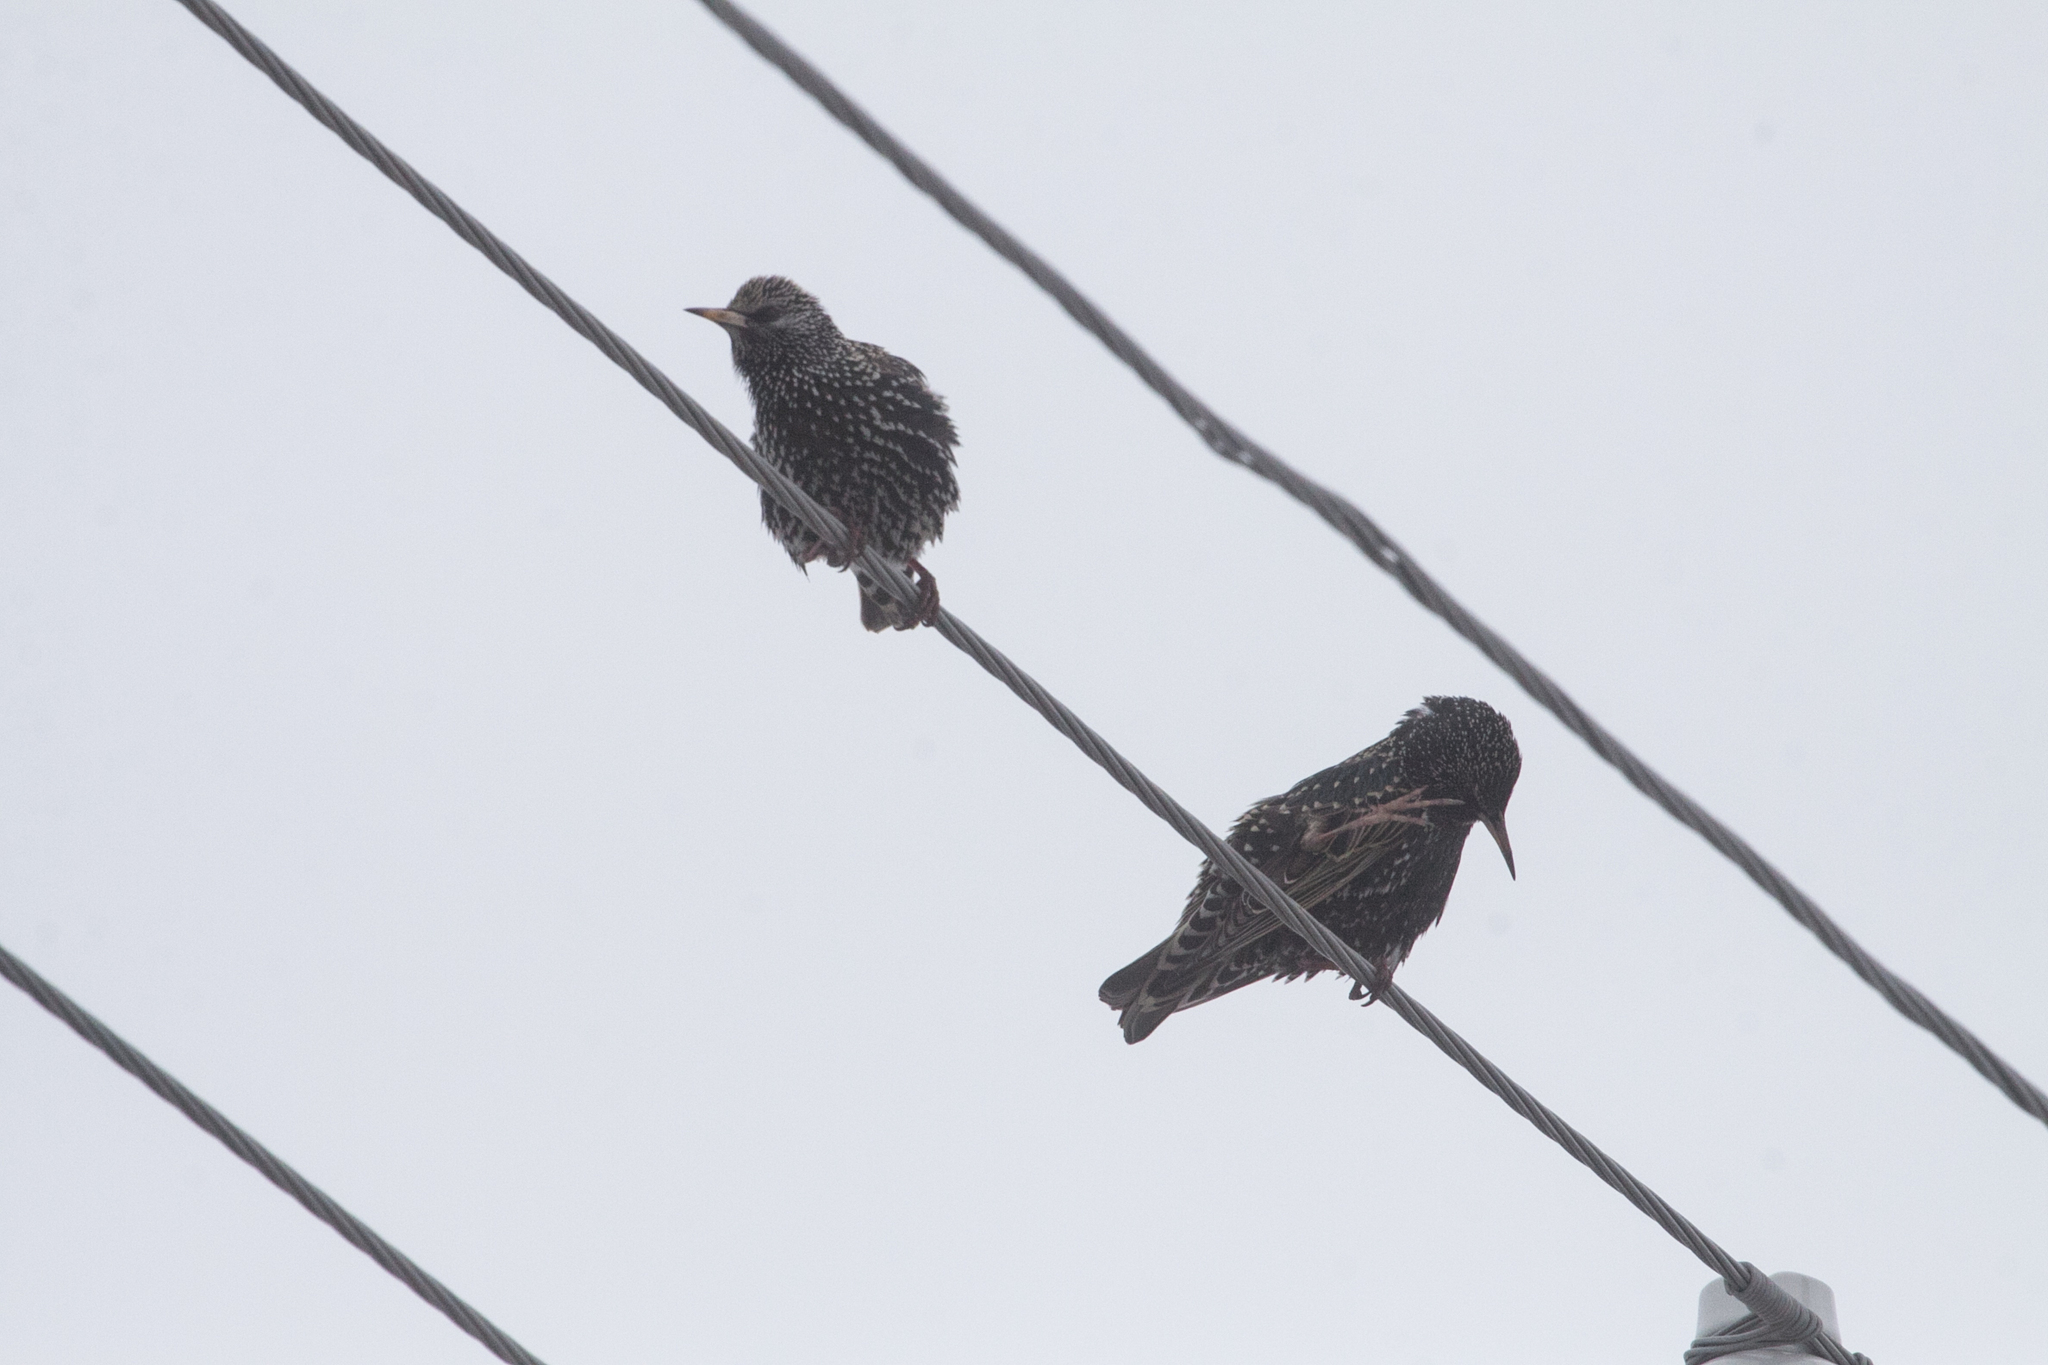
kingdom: Animalia
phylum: Chordata
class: Aves
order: Passeriformes
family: Sturnidae
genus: Sturnus
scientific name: Sturnus vulgaris
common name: Common starling
